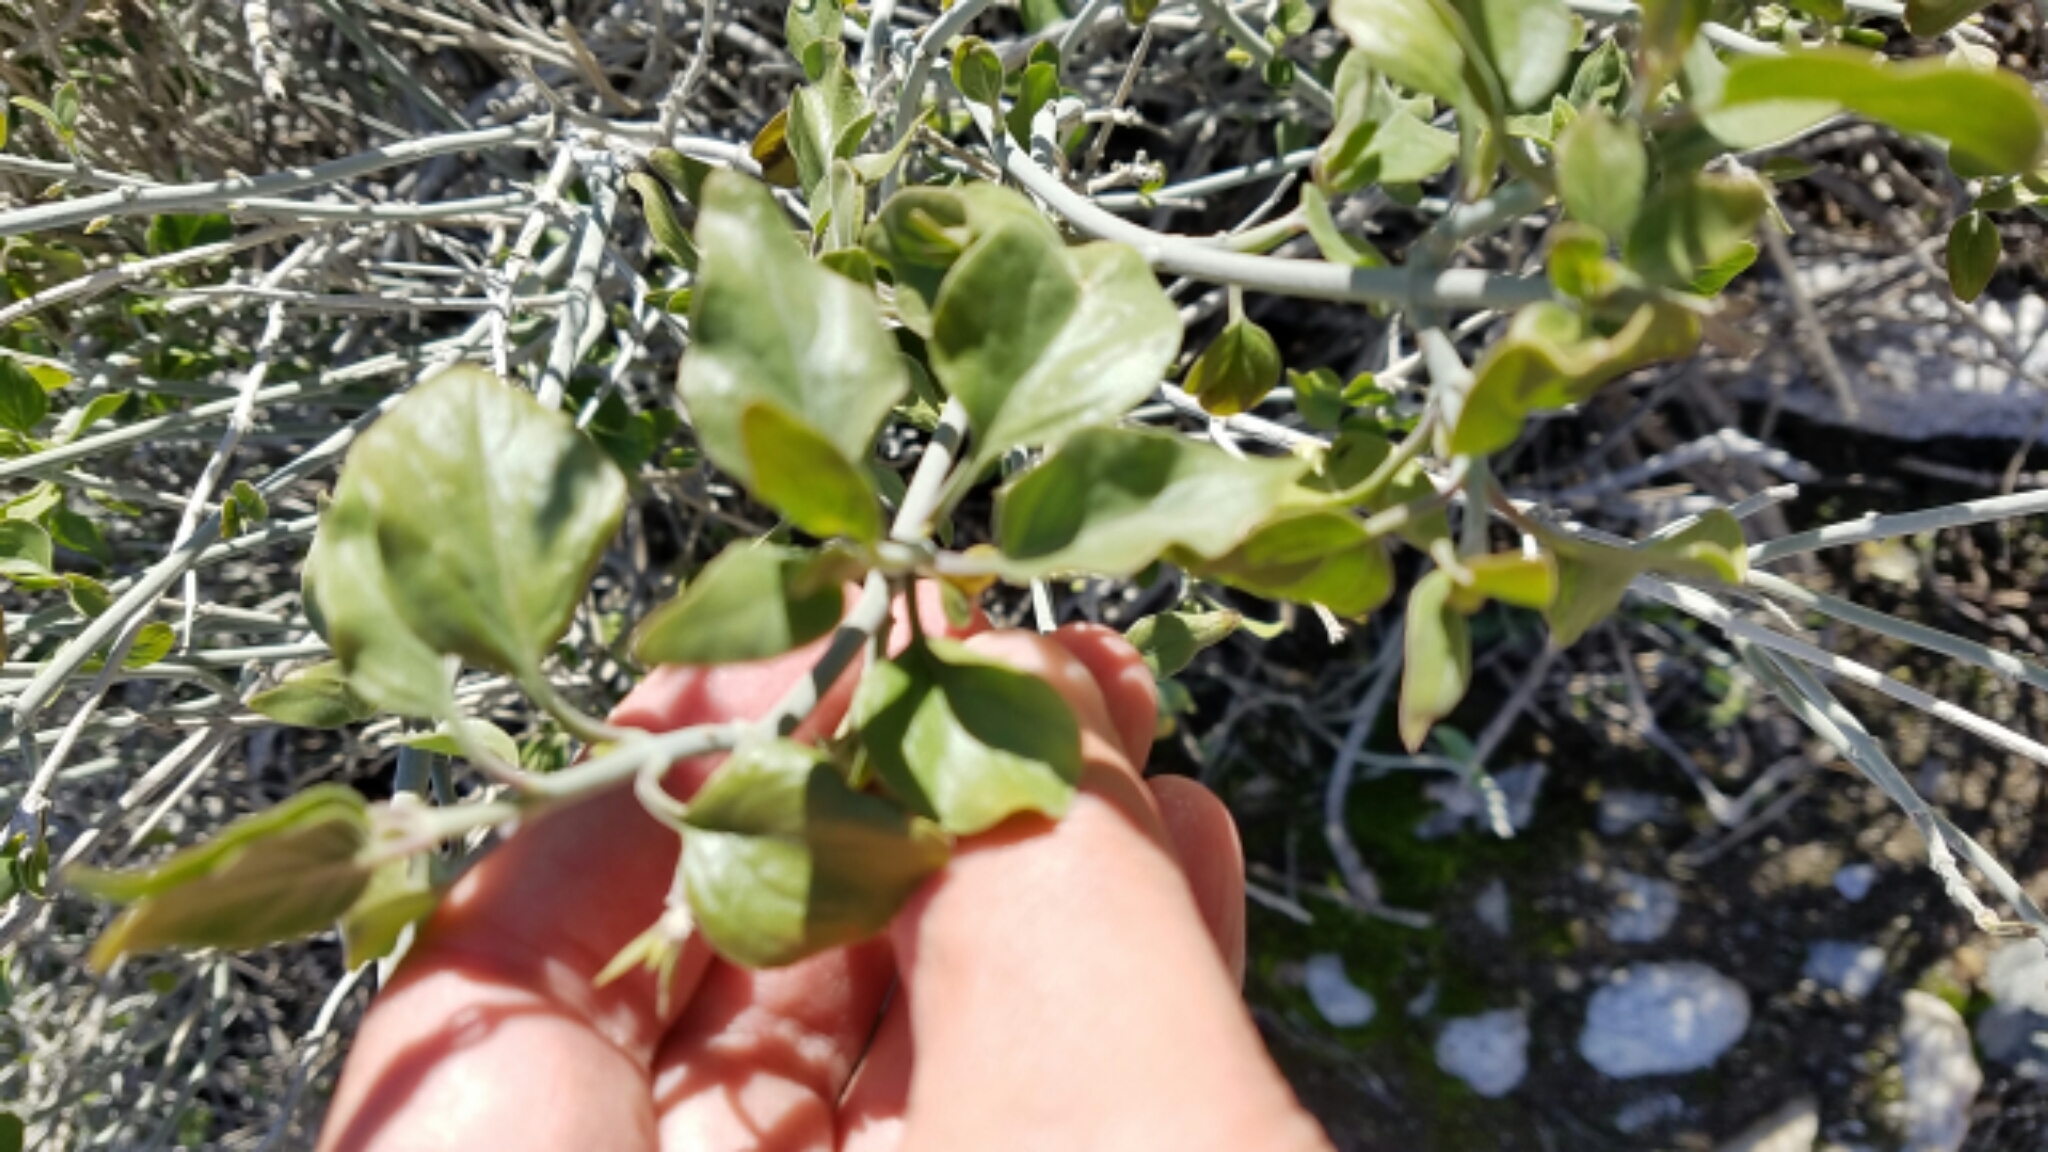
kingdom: Plantae
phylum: Tracheophyta
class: Magnoliopsida
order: Lamiales
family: Acanthaceae
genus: Justicia
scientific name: Justicia californica
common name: Chuparosa-honeysuckle
